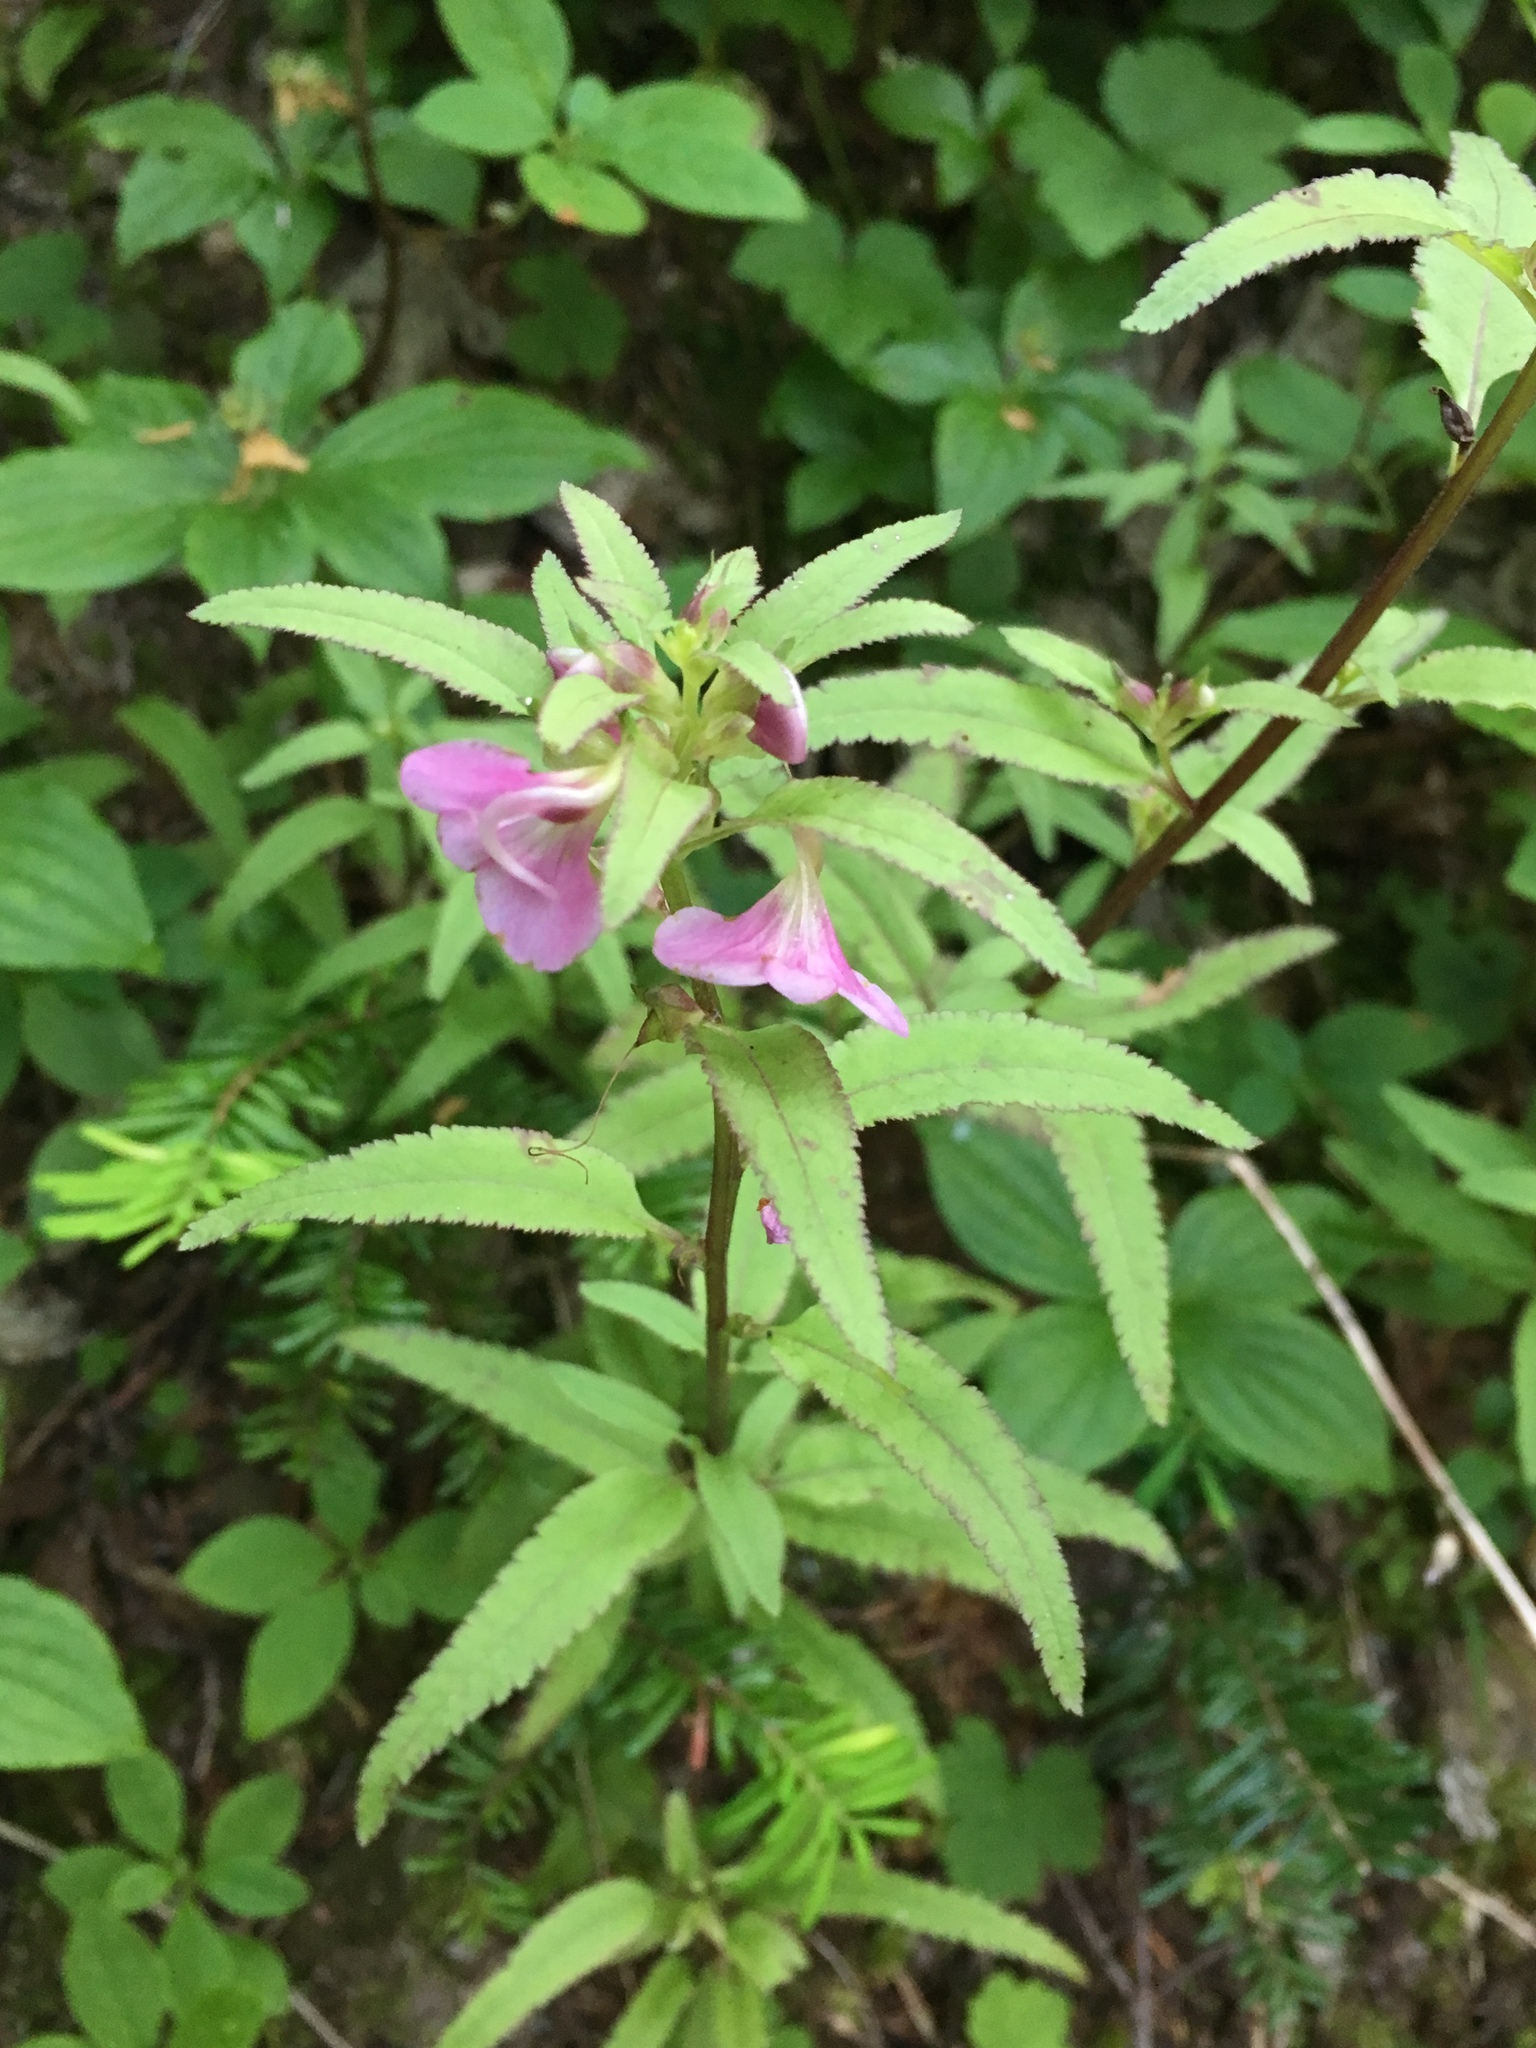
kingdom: Plantae
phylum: Tracheophyta
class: Magnoliopsida
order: Lamiales
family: Orobanchaceae
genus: Pedicularis
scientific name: Pedicularis racemosa
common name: Leafy lousewort
